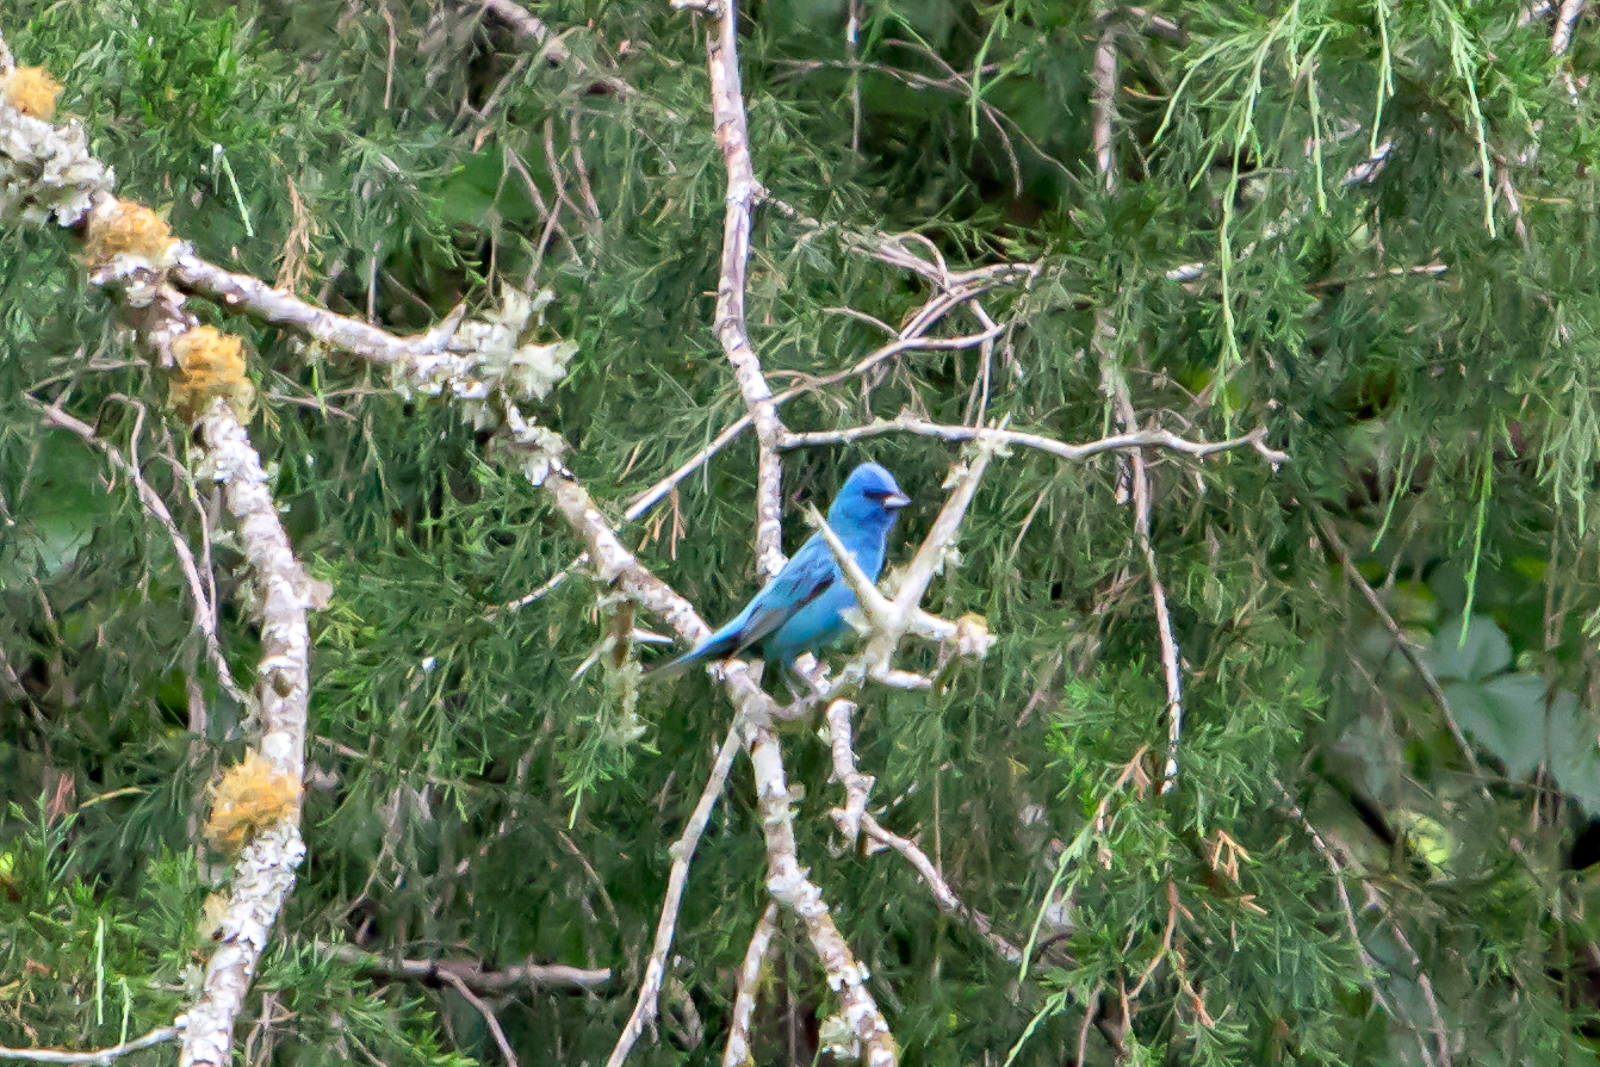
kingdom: Animalia
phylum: Chordata
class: Aves
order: Passeriformes
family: Cardinalidae
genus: Passerina
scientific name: Passerina cyanea
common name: Indigo bunting
